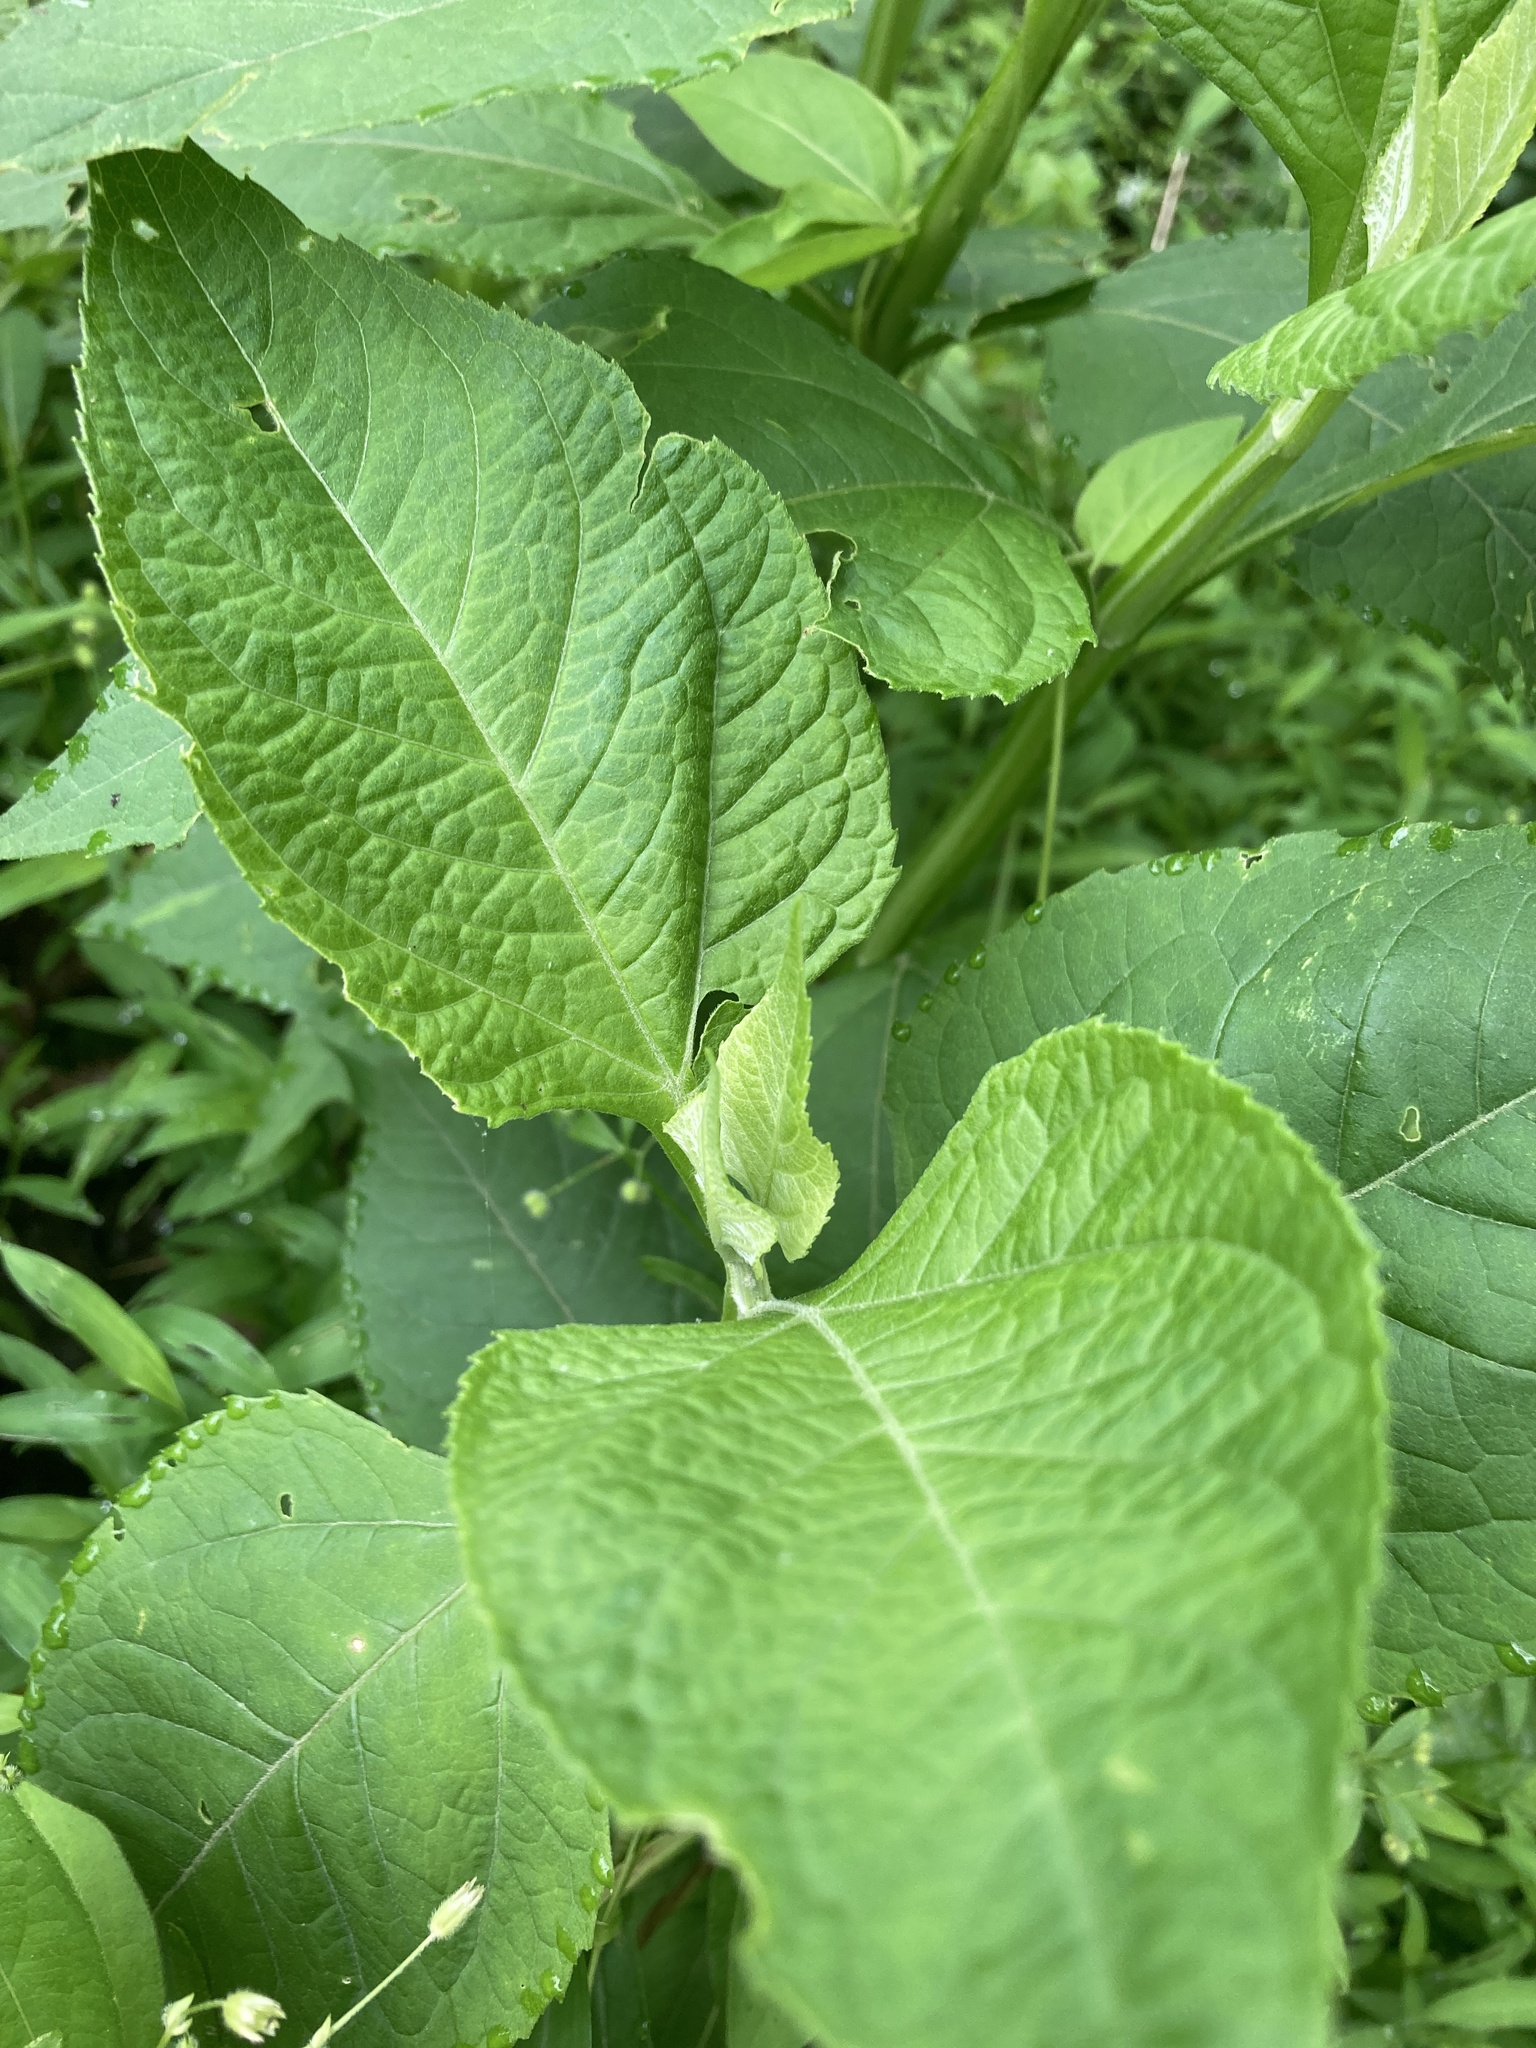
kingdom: Plantae
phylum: Tracheophyta
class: Magnoliopsida
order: Asterales
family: Asteraceae
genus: Verbesina
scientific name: Verbesina occidentalis
